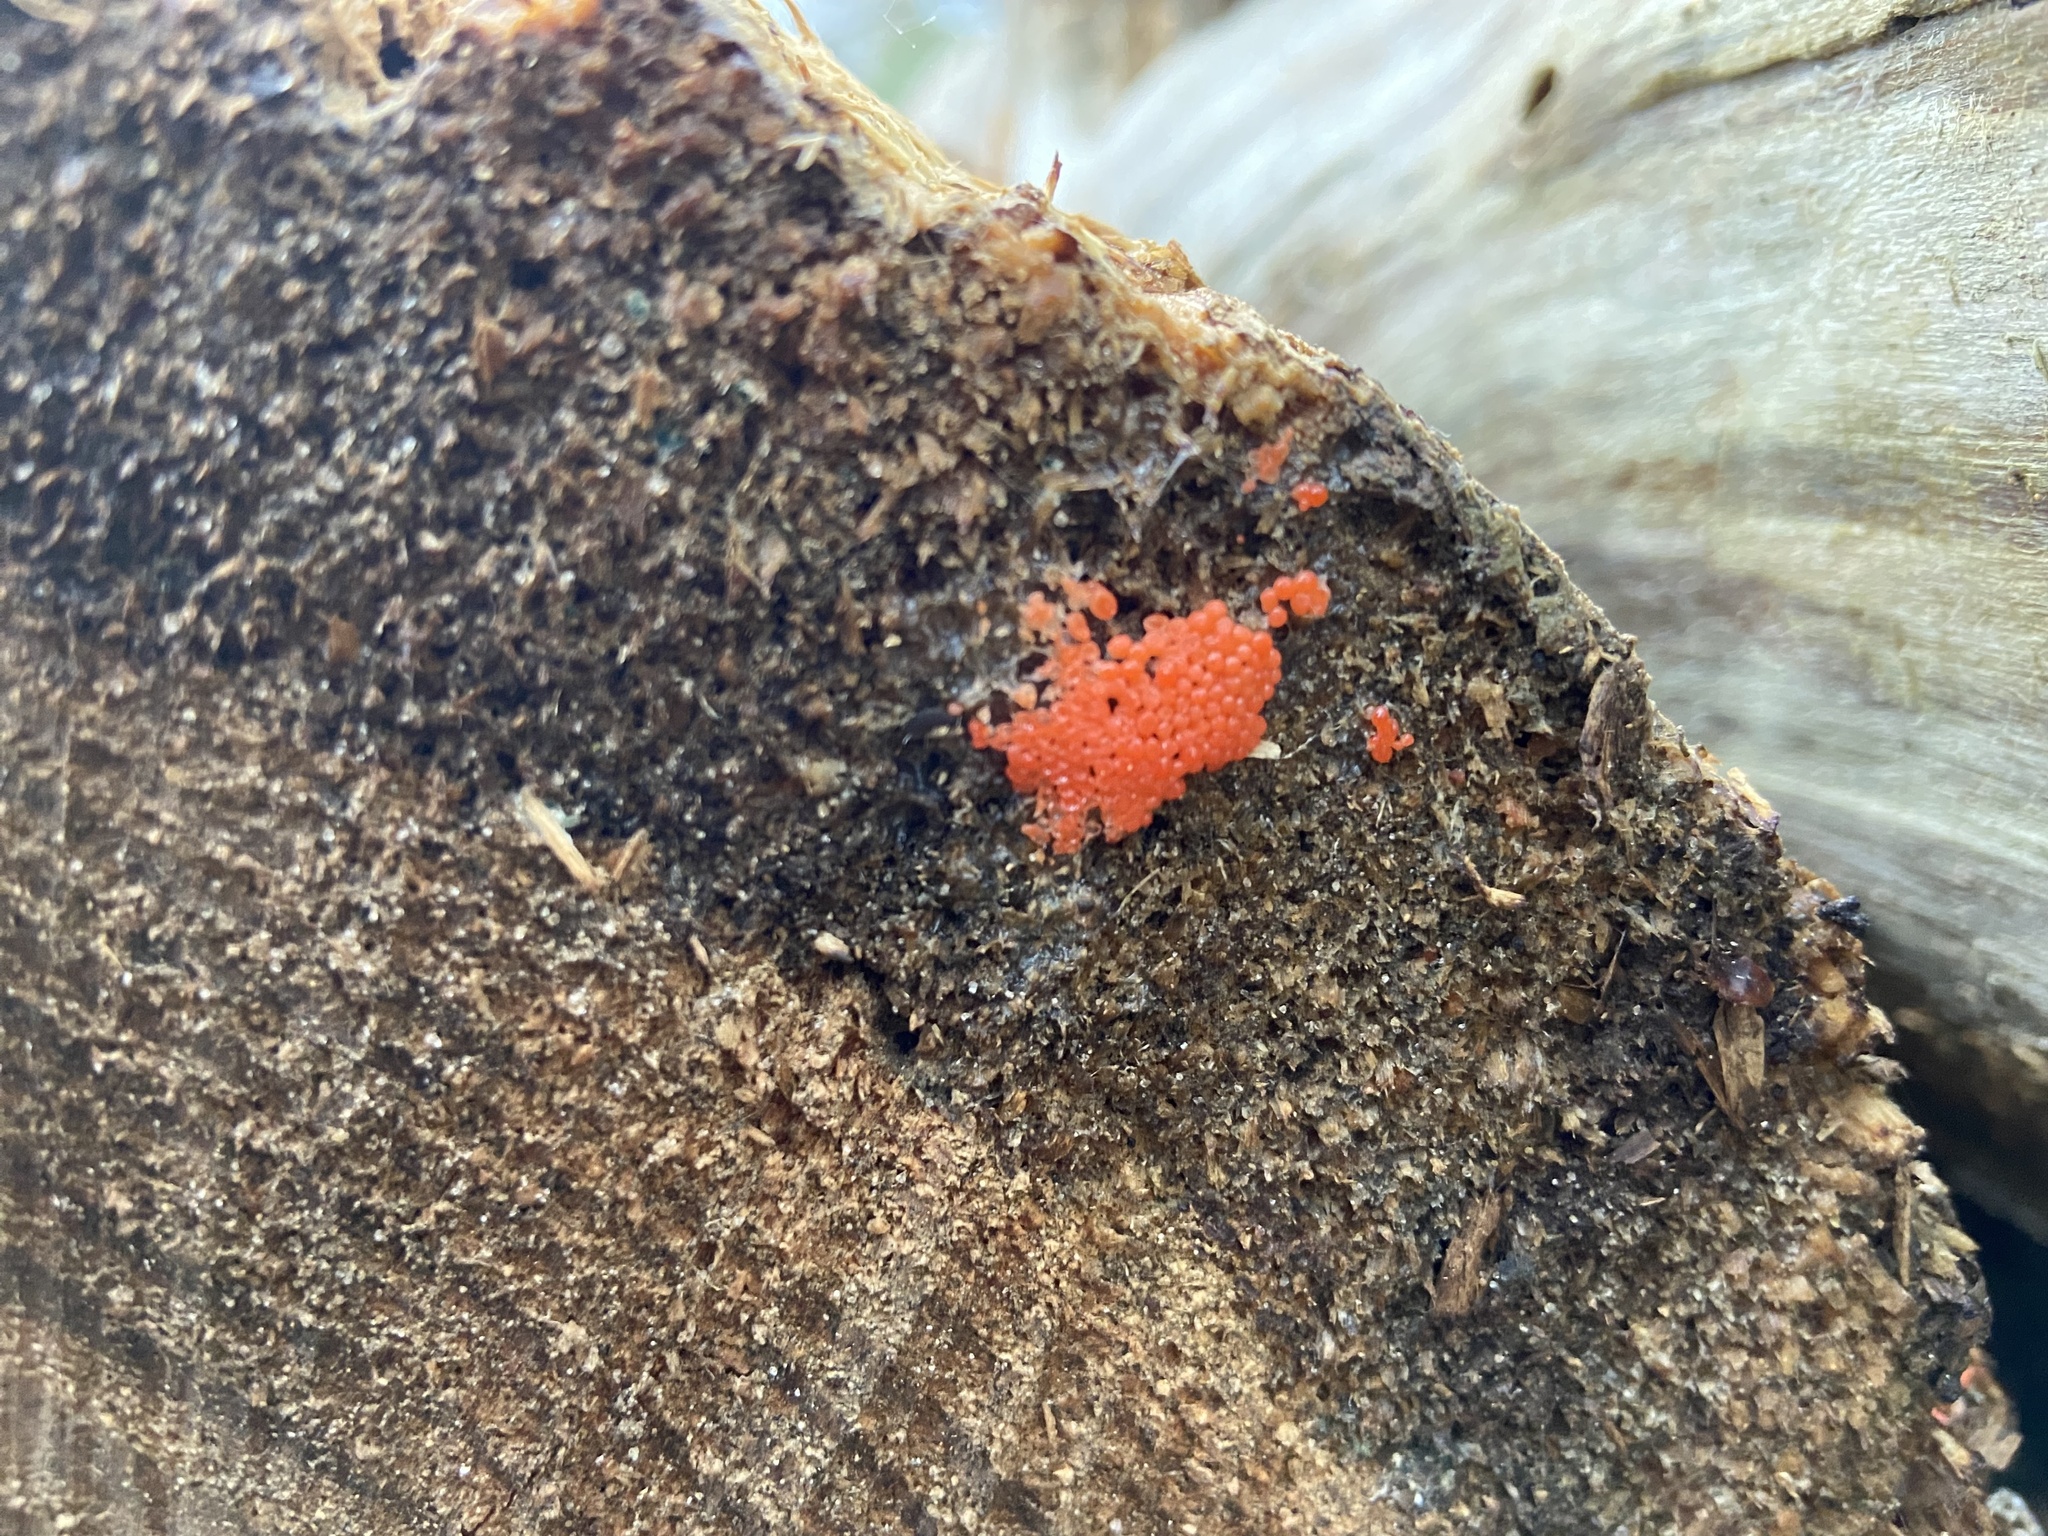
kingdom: Protozoa
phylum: Mycetozoa
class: Myxomycetes
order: Cribrariales
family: Tubiferaceae
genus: Tubifera
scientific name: Tubifera ferruginosa
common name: Red raspberry slime mold
